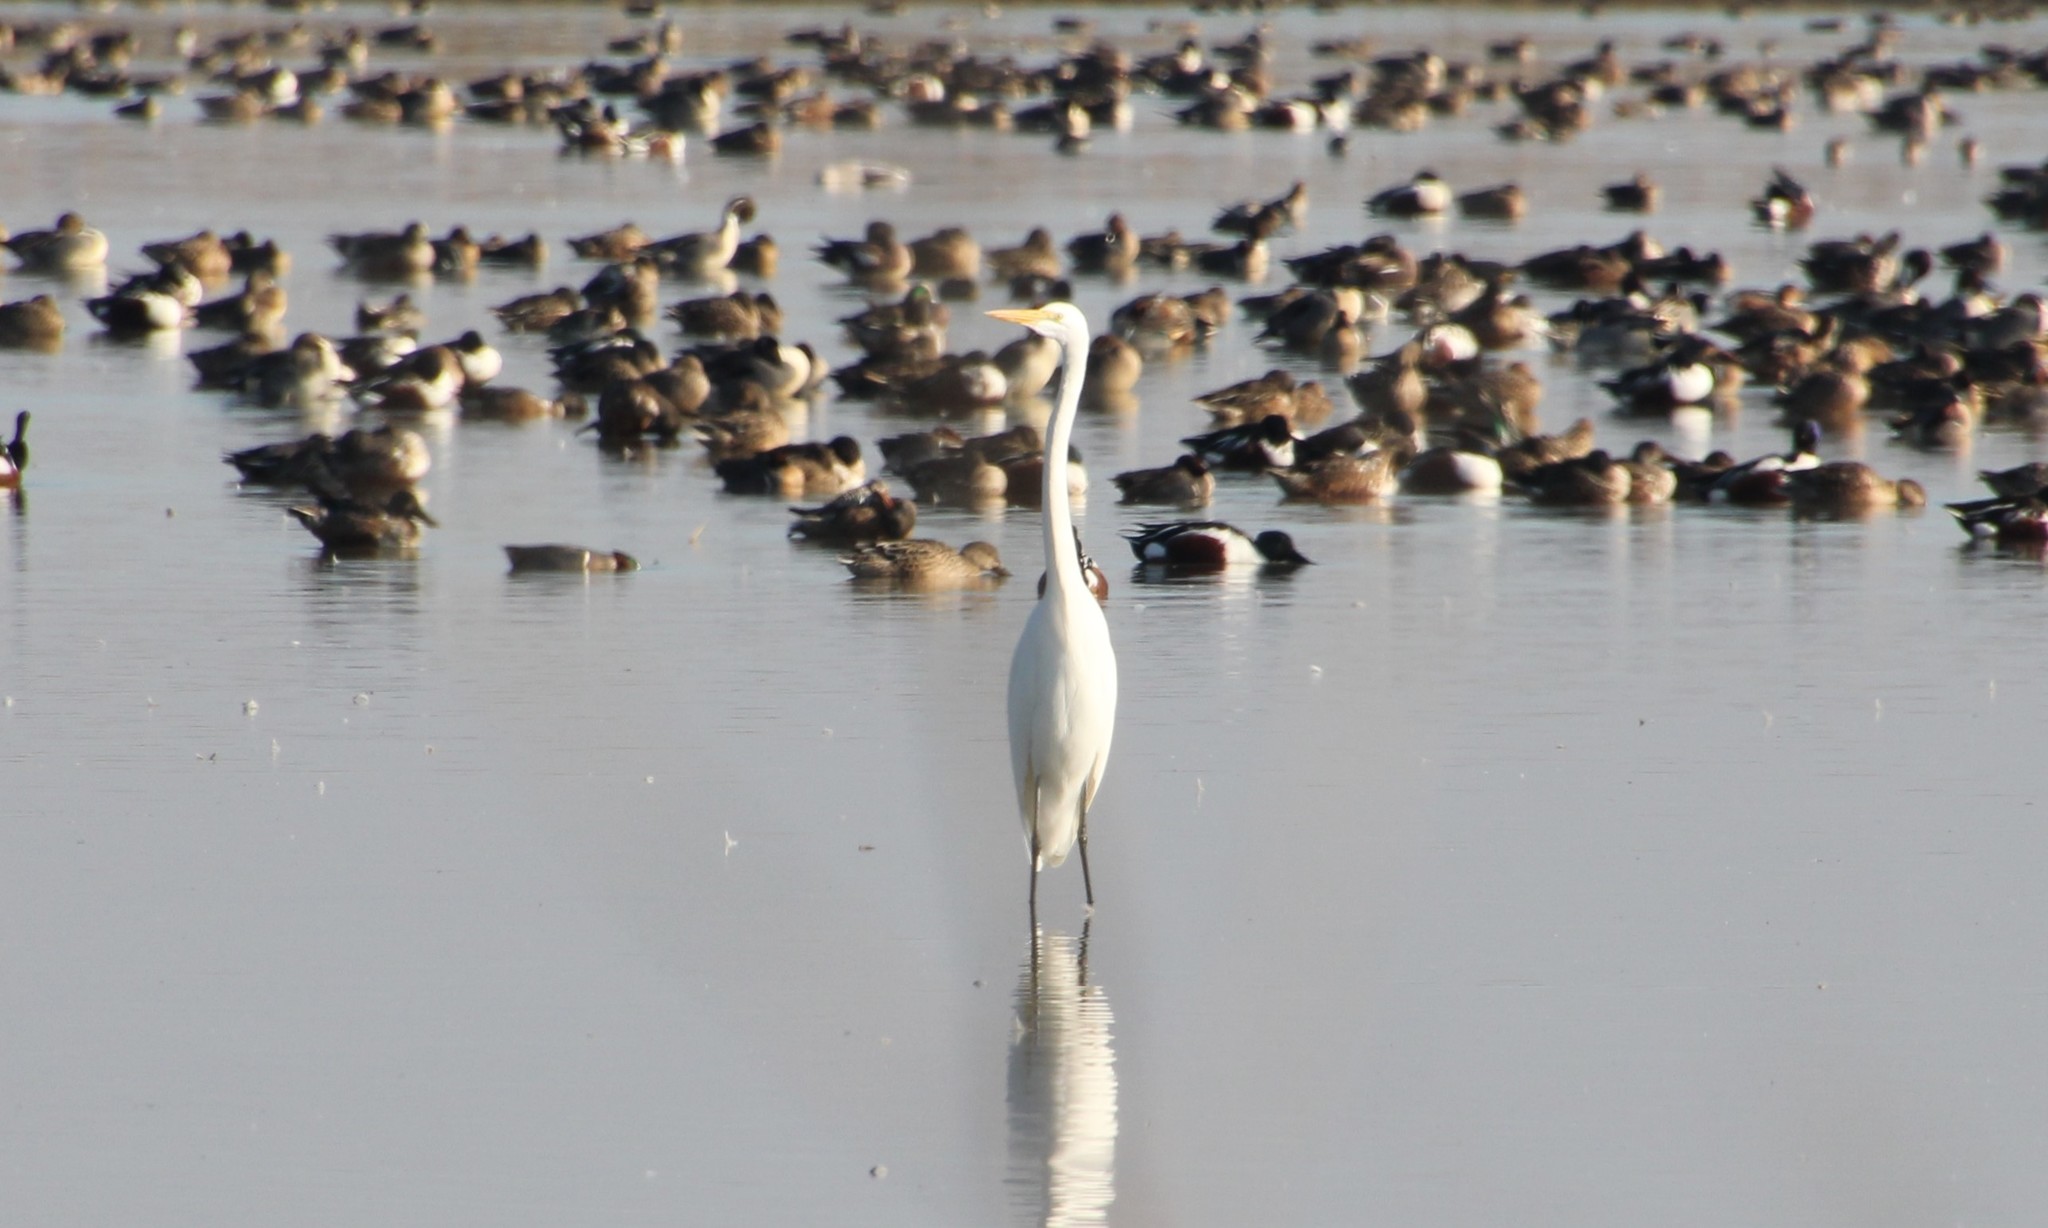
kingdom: Animalia
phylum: Chordata
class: Aves
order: Pelecaniformes
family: Ardeidae
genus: Ardea
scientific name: Ardea alba
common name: Great egret
